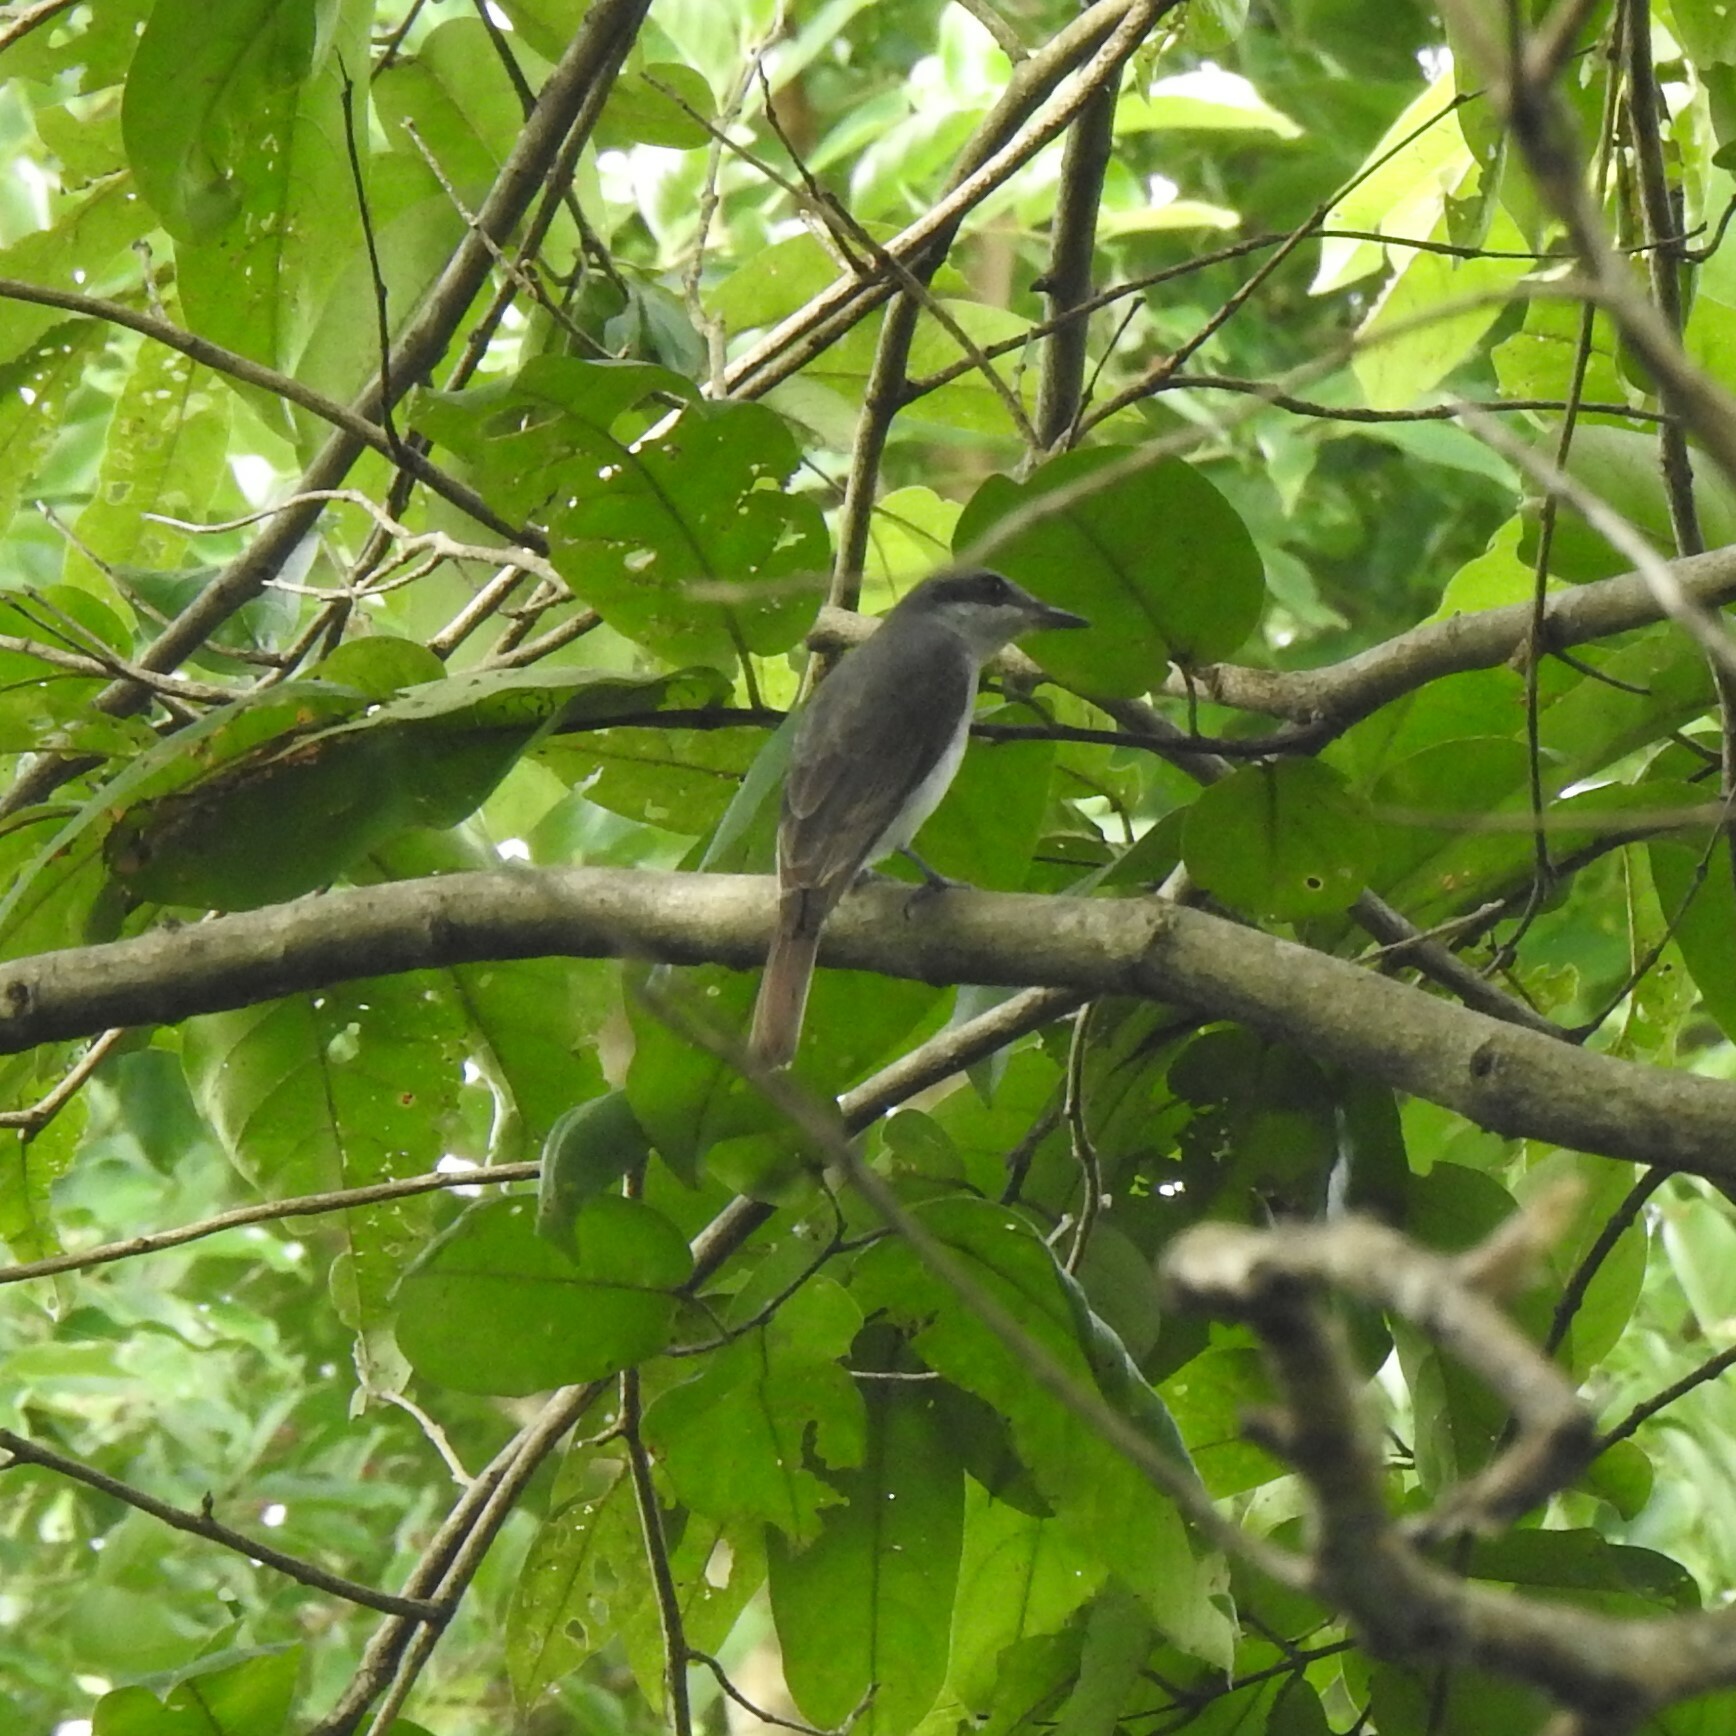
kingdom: Animalia
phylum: Chordata
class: Aves
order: Passeriformes
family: Tephrodornithidae
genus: Tephrodornis
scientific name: Tephrodornis sylvicola
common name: Malabar woodshrike
